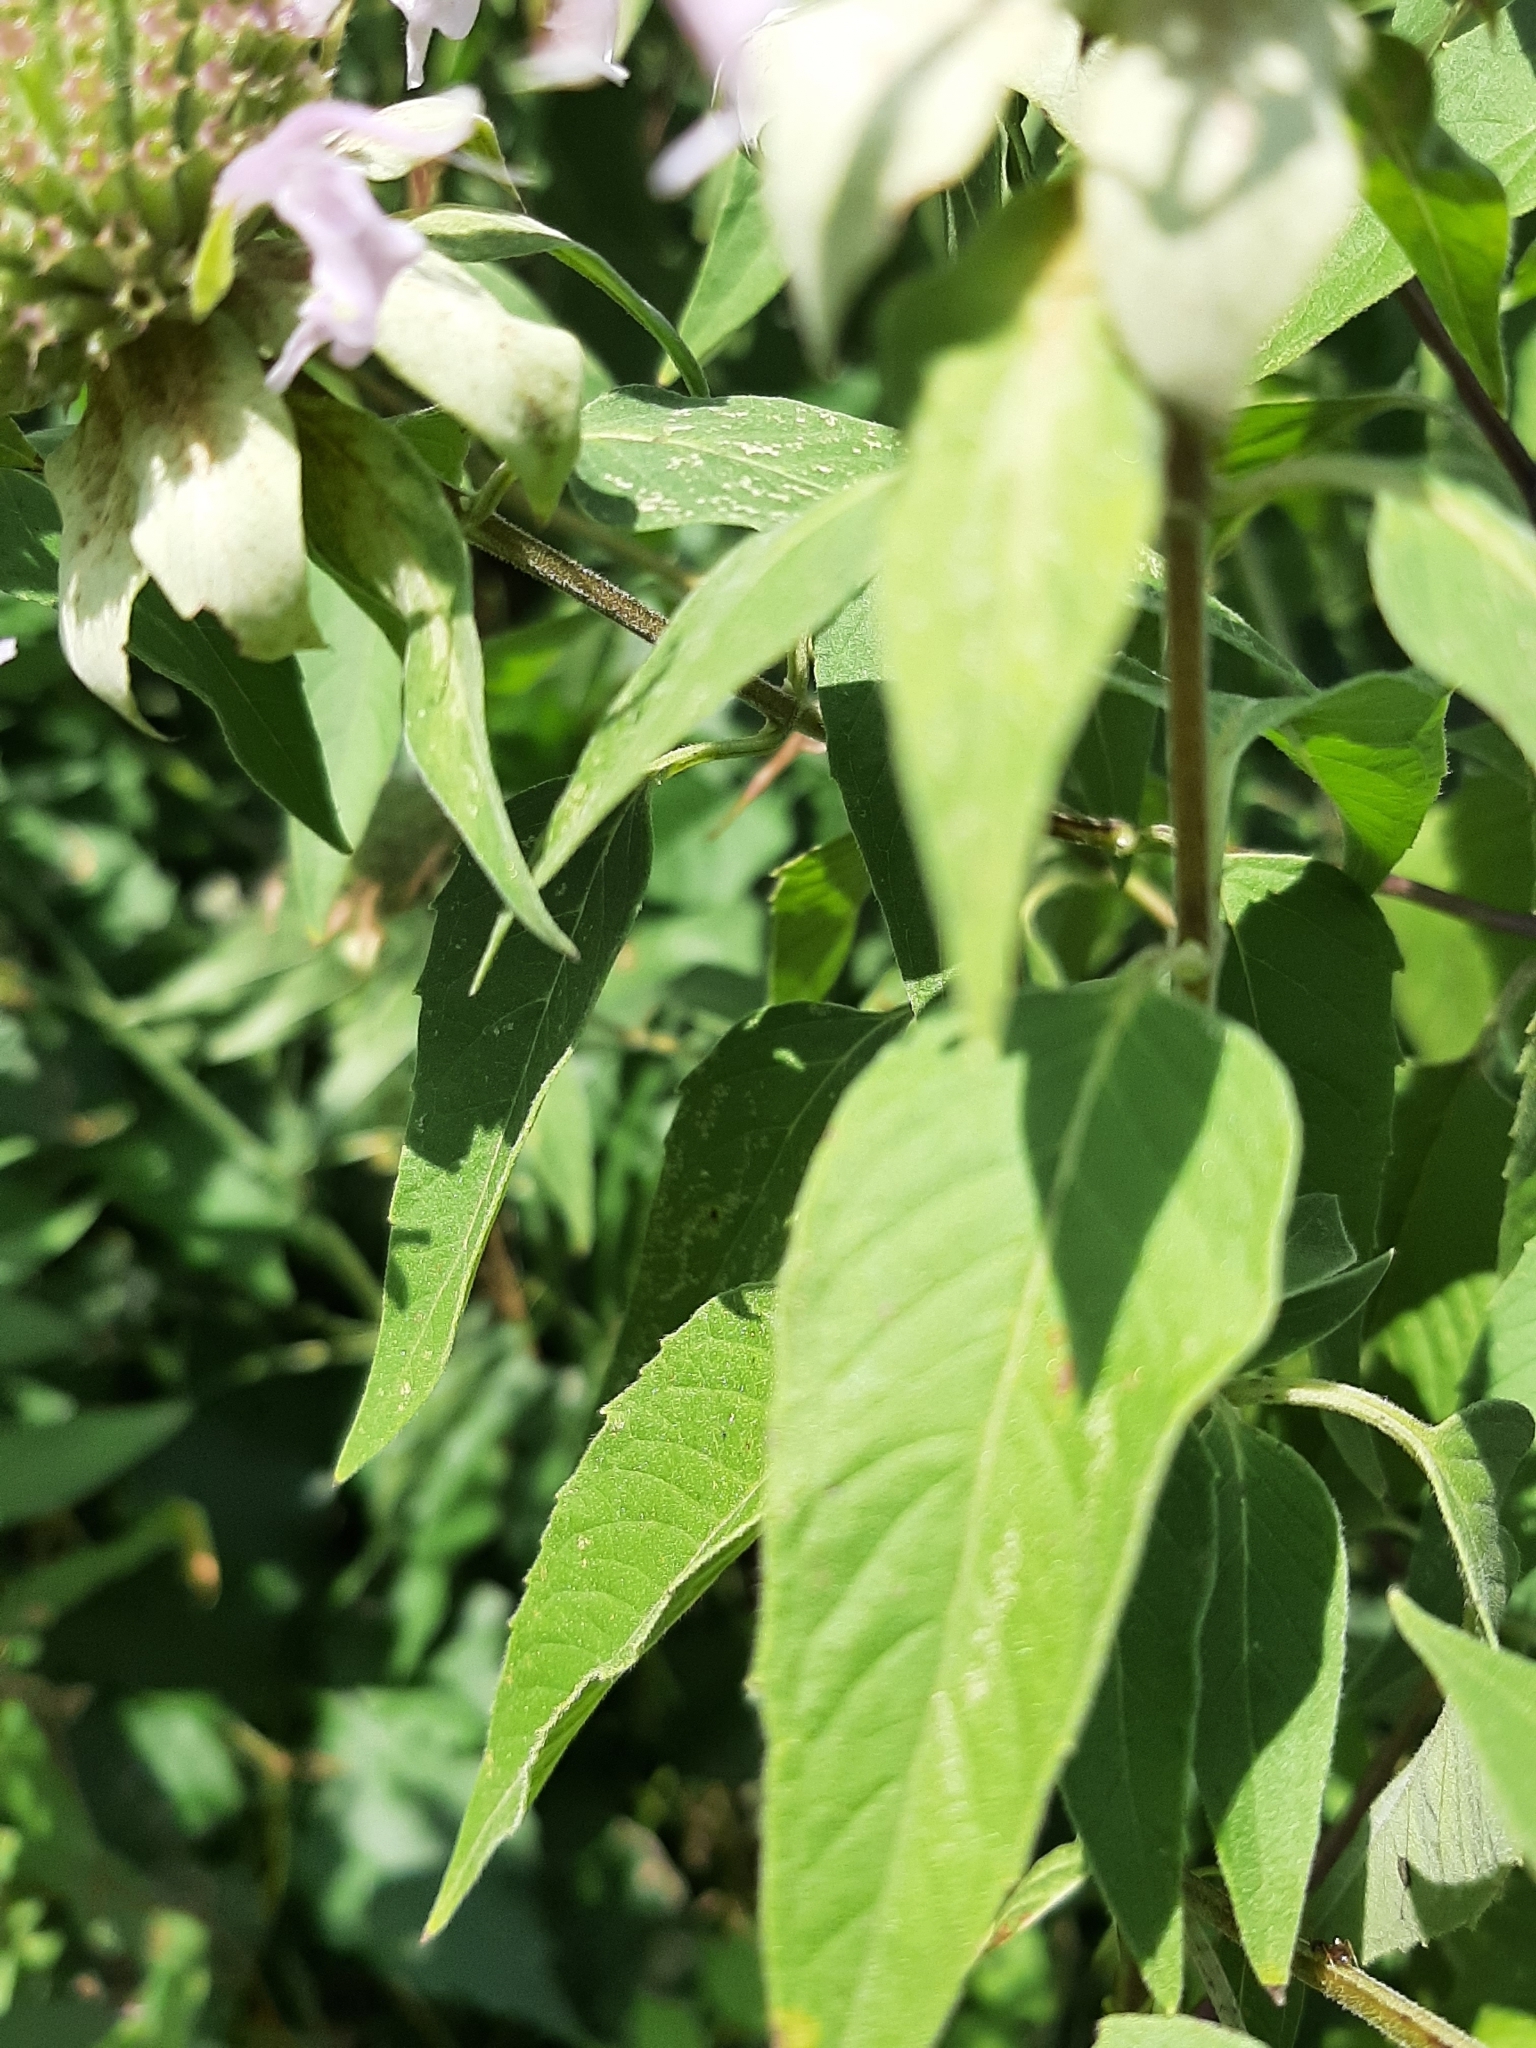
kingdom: Plantae
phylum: Tracheophyta
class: Magnoliopsida
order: Lamiales
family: Lamiaceae
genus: Monarda
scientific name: Monarda fistulosa
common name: Purple beebalm
